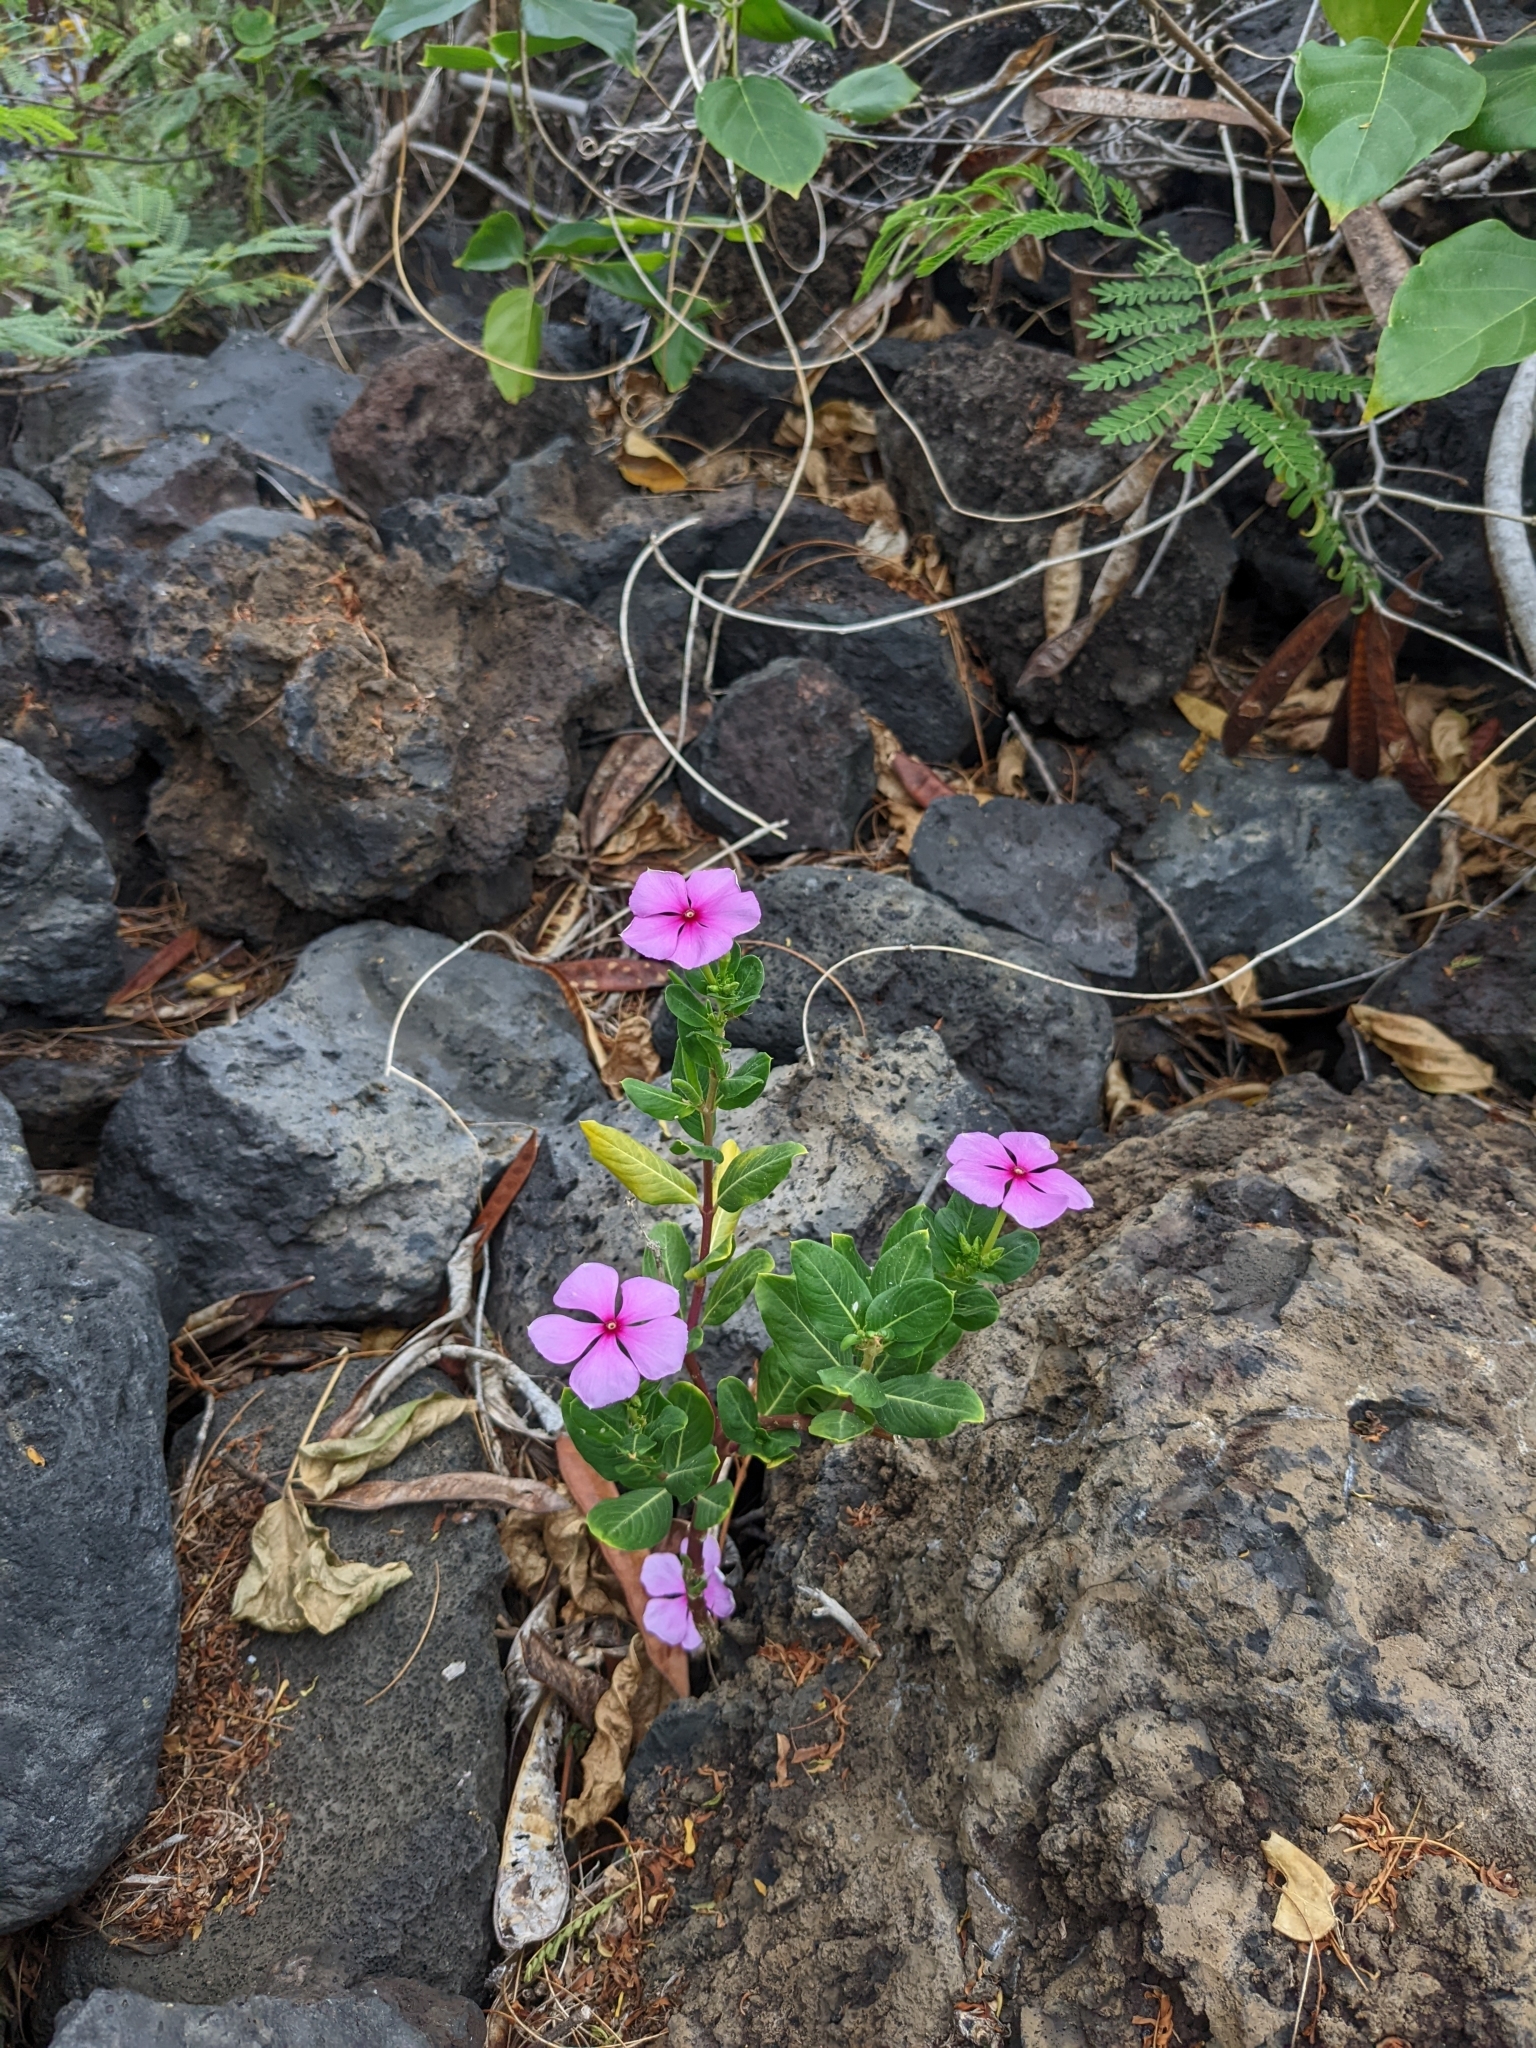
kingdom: Plantae
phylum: Tracheophyta
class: Magnoliopsida
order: Gentianales
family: Apocynaceae
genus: Catharanthus
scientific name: Catharanthus roseus
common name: Madagascar periwinkle
